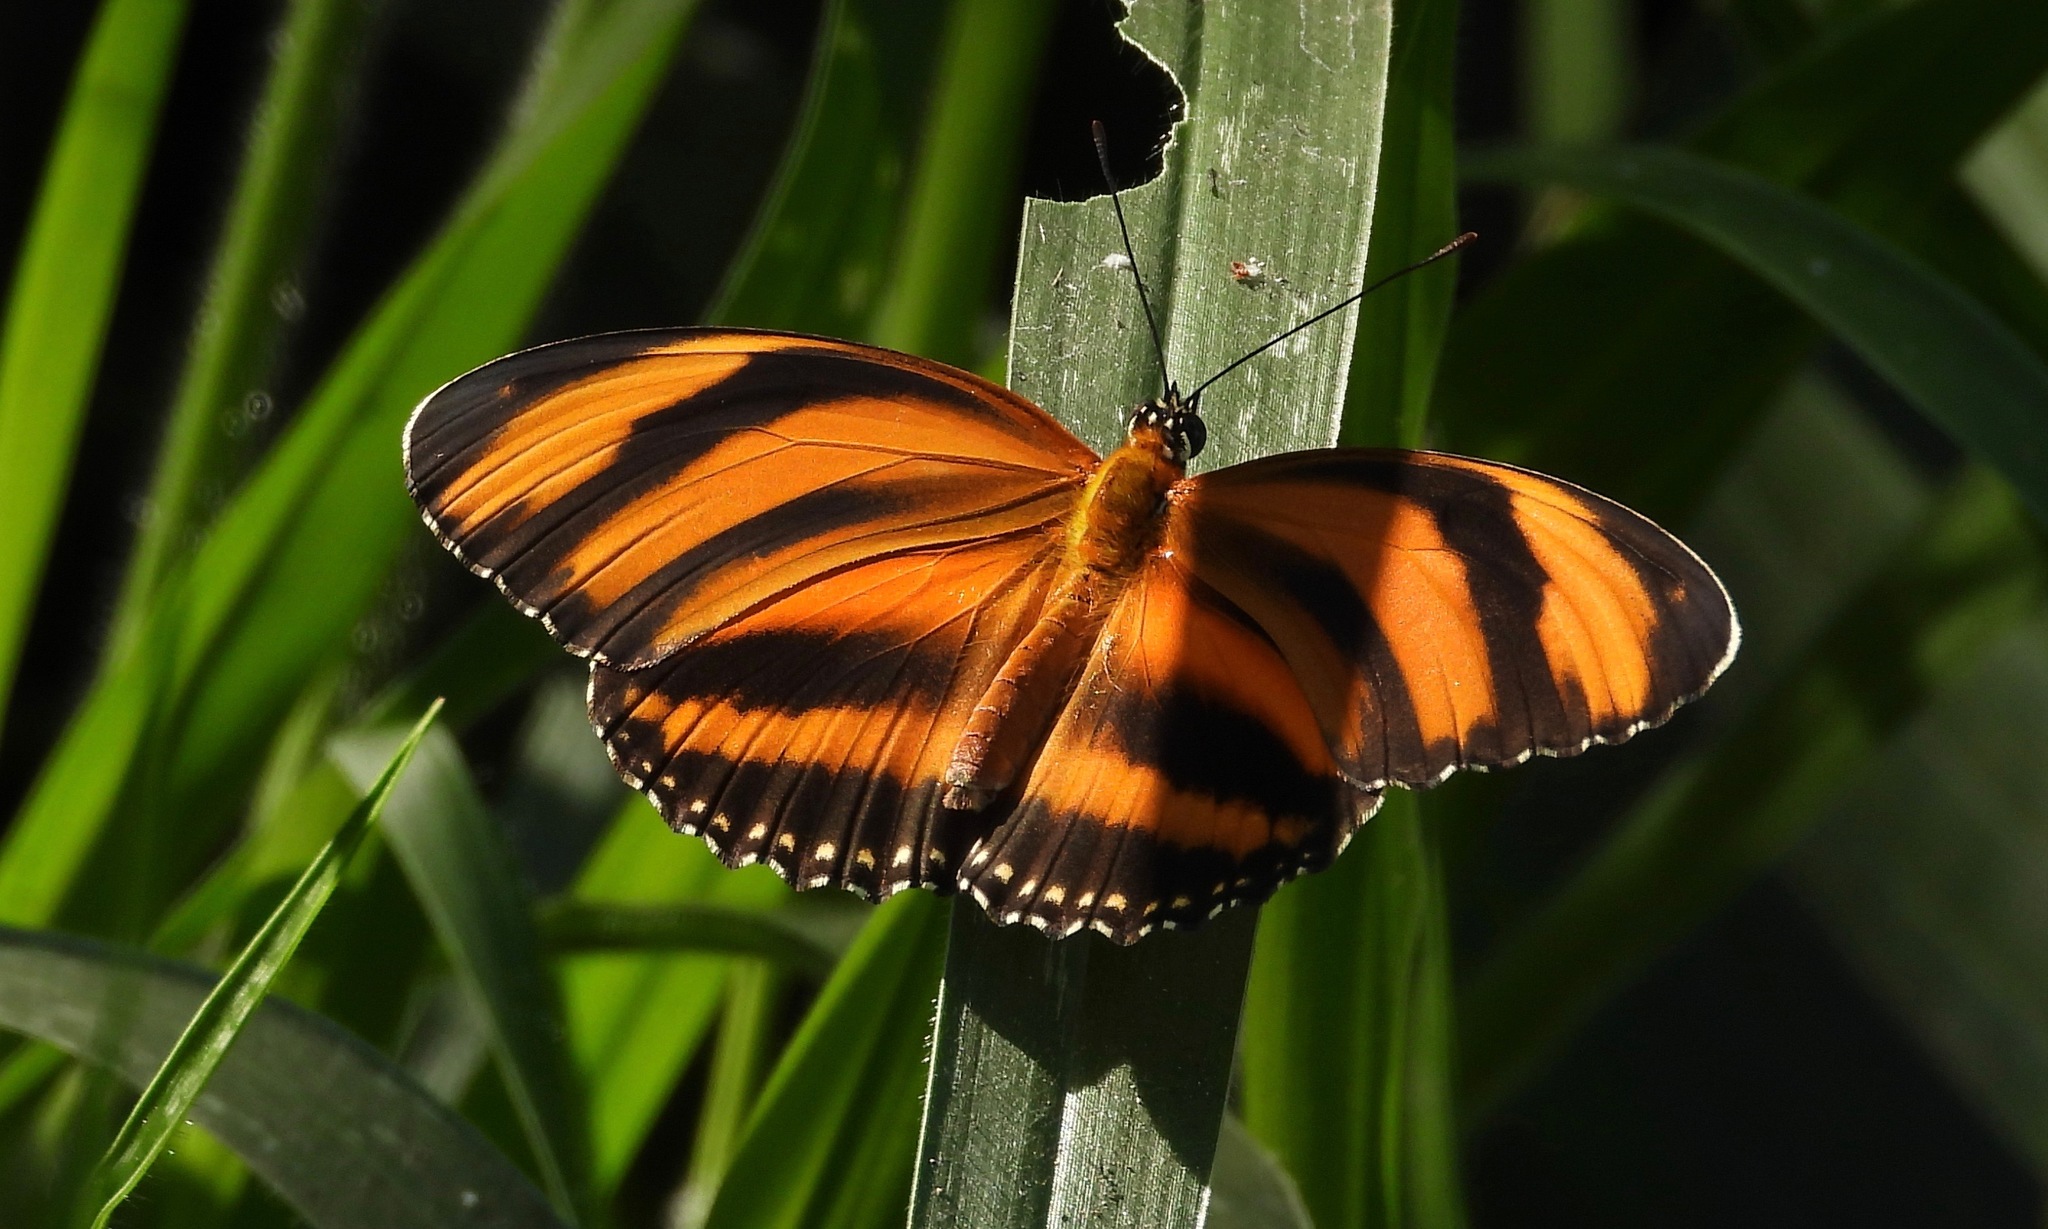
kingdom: Animalia
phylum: Arthropoda
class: Insecta
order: Lepidoptera
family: Nymphalidae
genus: Dryadula
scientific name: Dryadula phaetusa
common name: Banded orange heliconian
